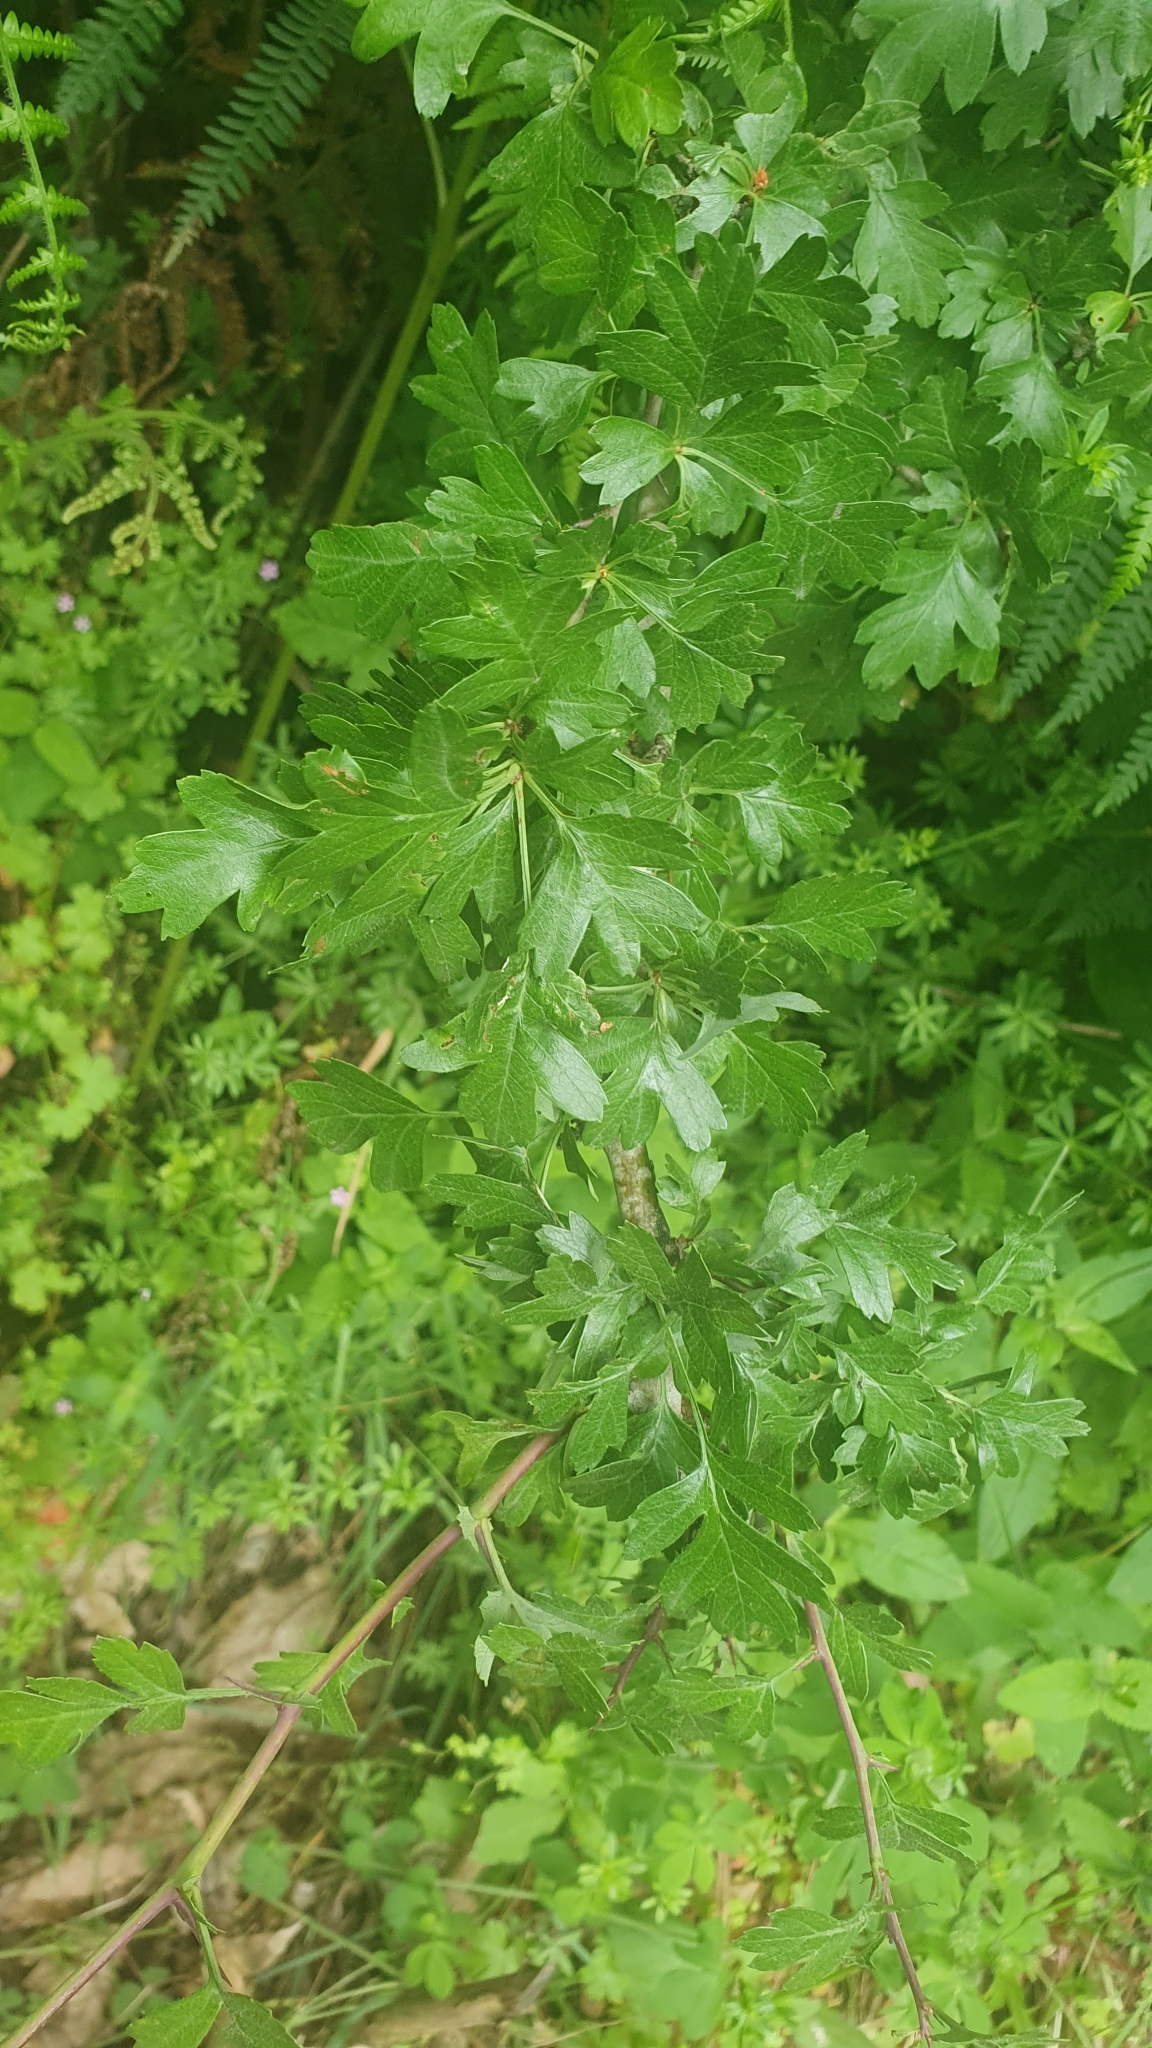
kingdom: Plantae
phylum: Tracheophyta
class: Magnoliopsida
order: Rosales
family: Rosaceae
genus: Crataegus
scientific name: Crataegus monogyna
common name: Hawthorn
